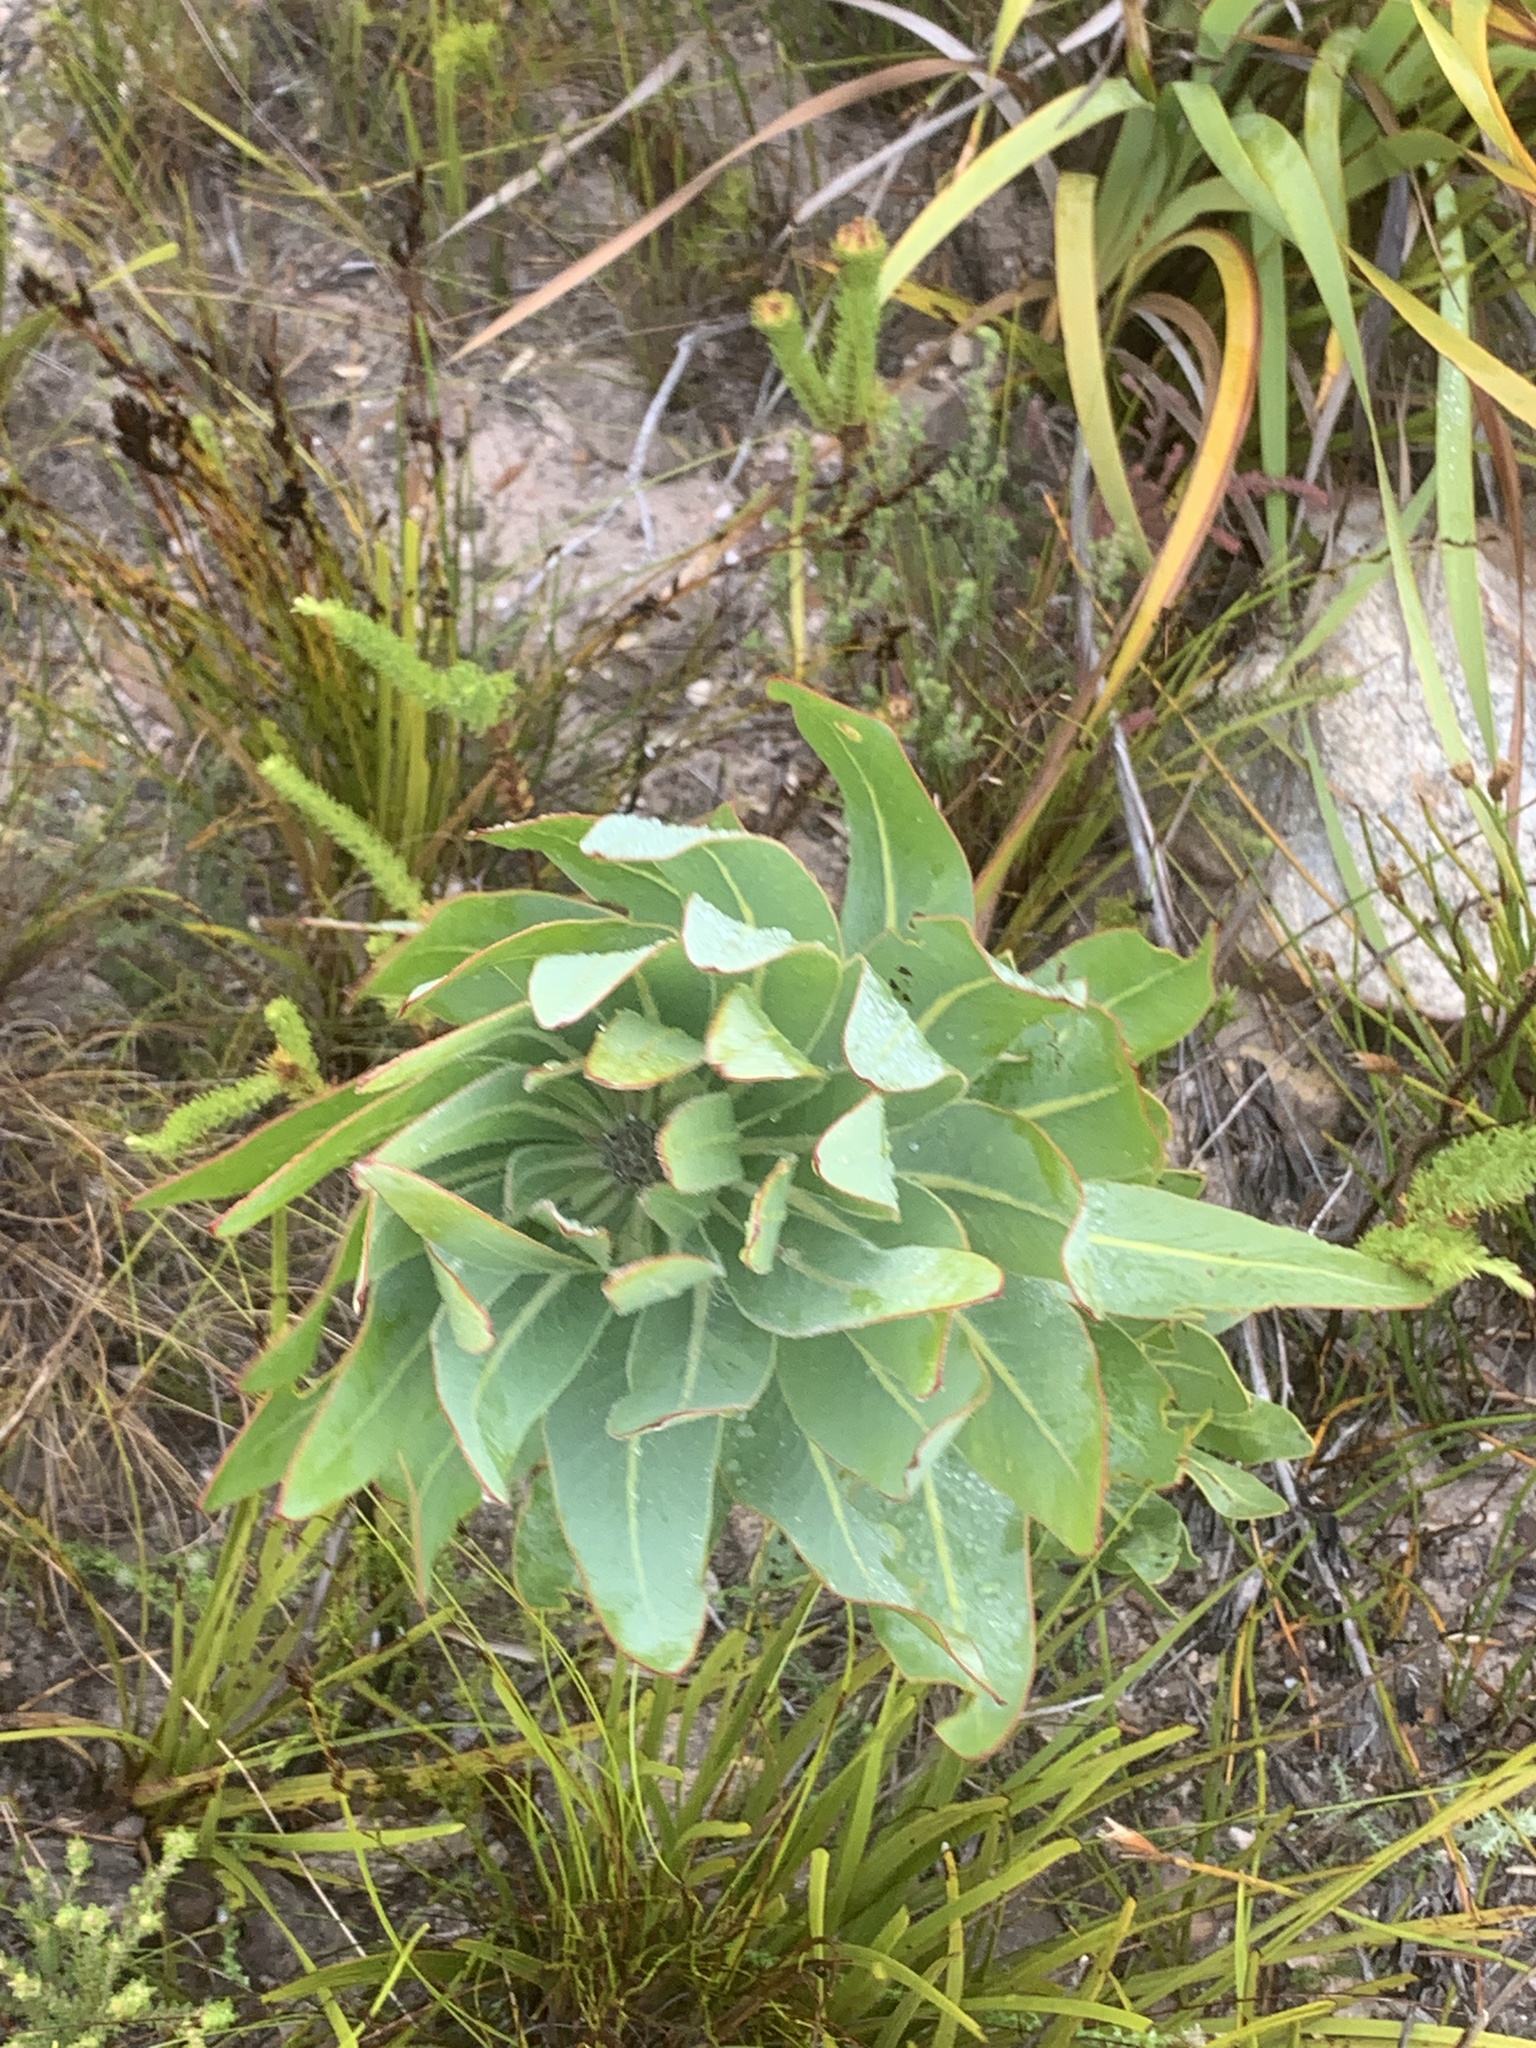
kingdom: Plantae
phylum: Tracheophyta
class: Magnoliopsida
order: Proteales
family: Proteaceae
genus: Protea
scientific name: Protea laurifolia
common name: Grey-leaf sugarbsh
